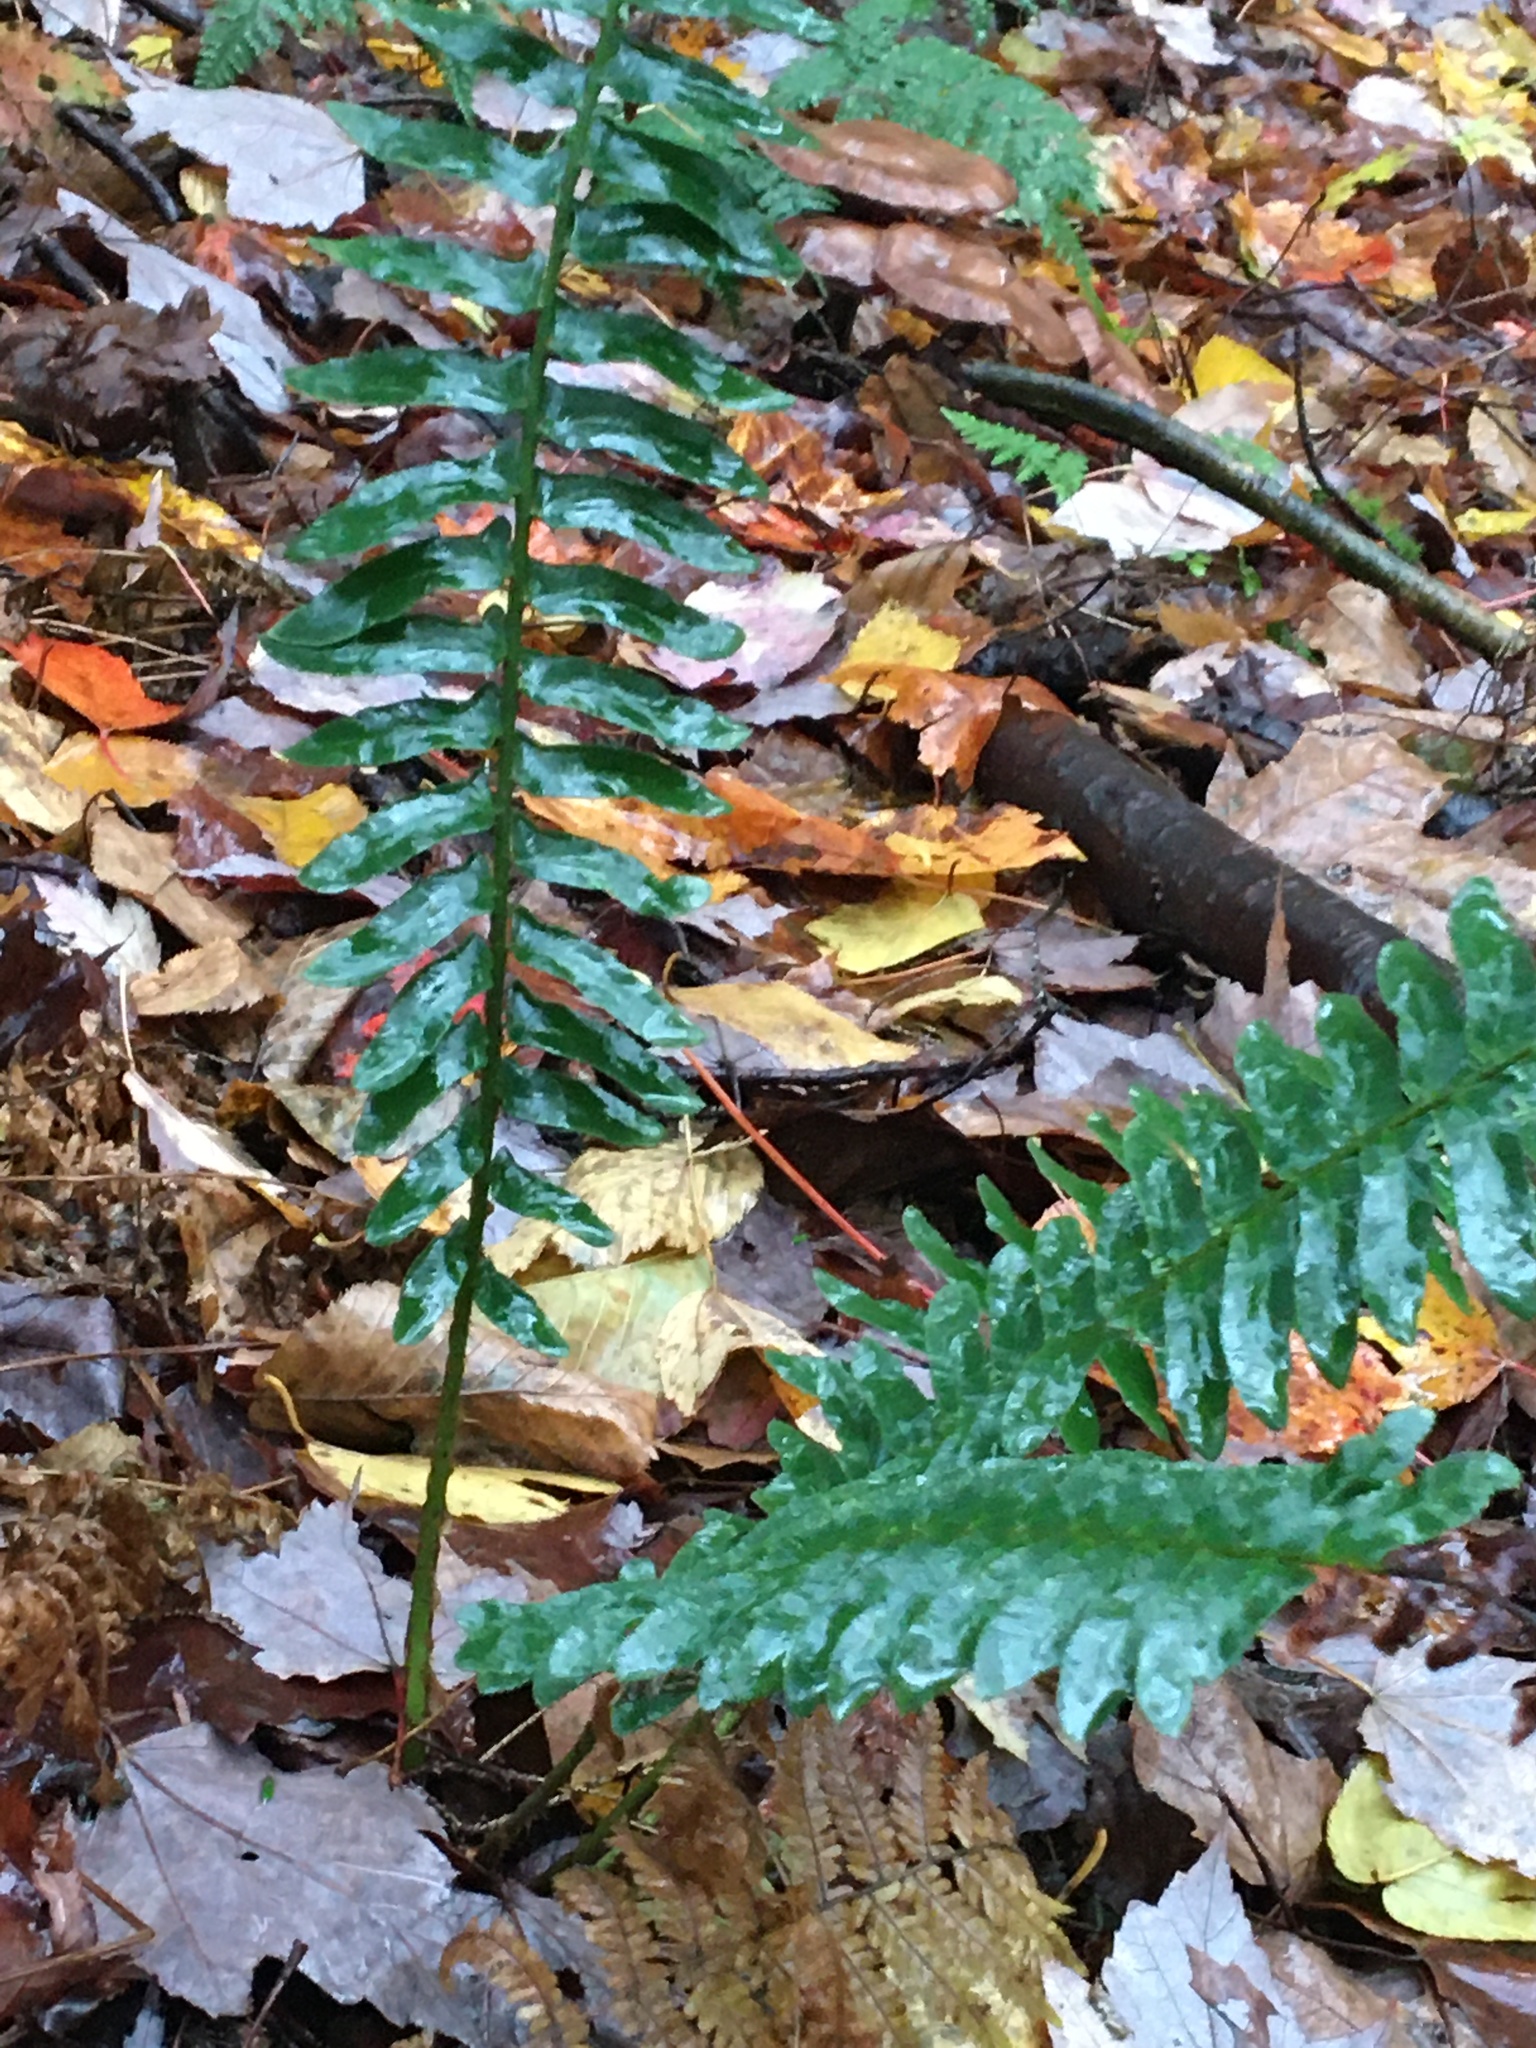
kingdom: Plantae
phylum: Tracheophyta
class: Polypodiopsida
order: Polypodiales
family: Dryopteridaceae
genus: Polystichum
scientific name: Polystichum acrostichoides
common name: Christmas fern
